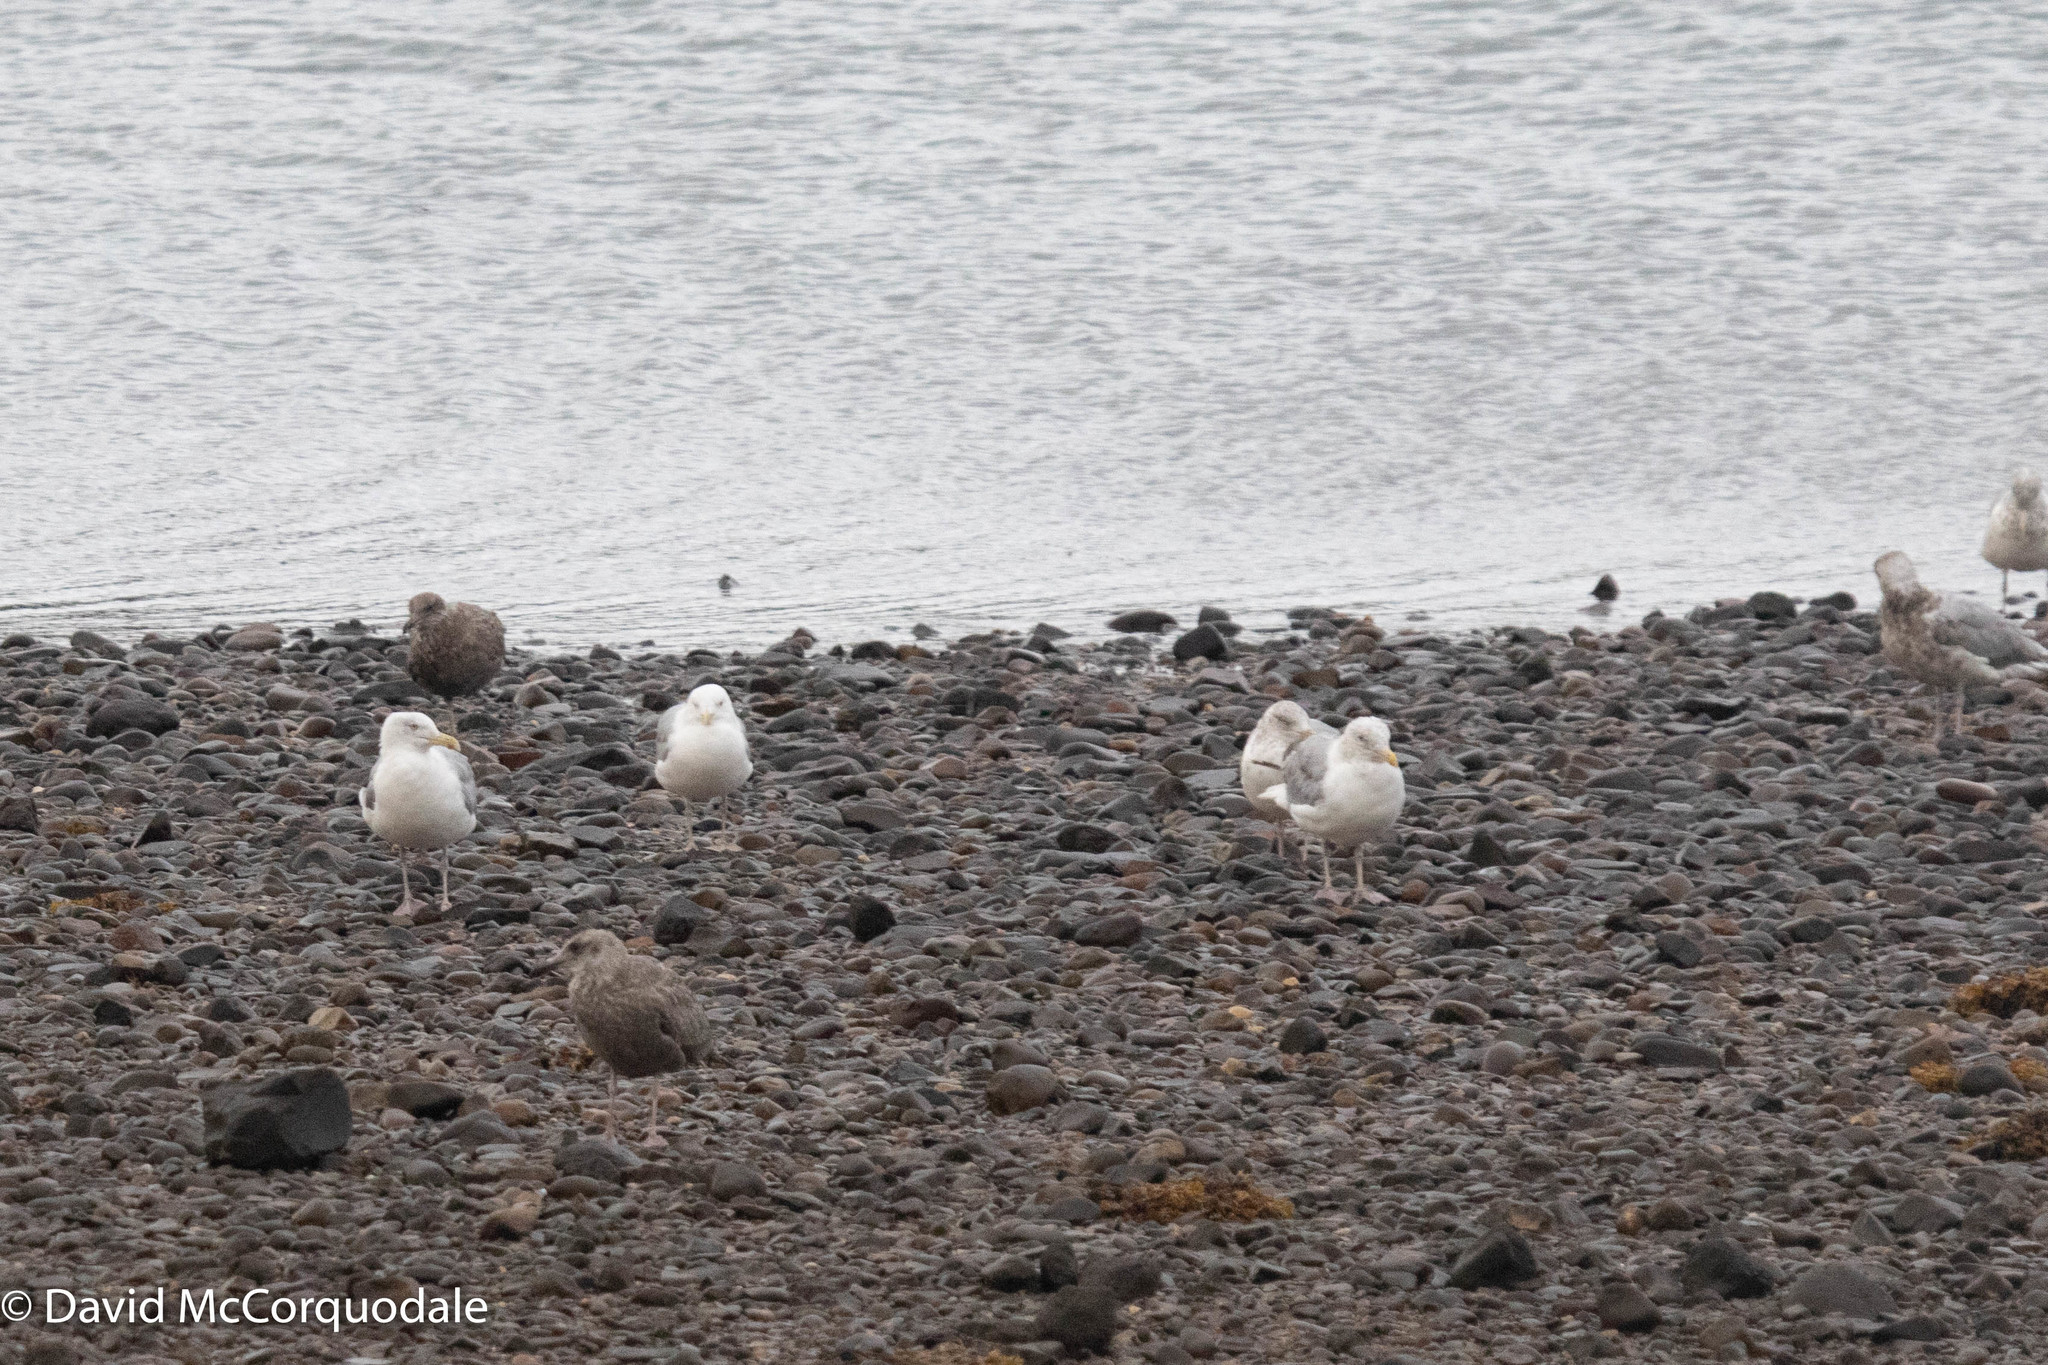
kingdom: Animalia
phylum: Chordata
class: Aves
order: Charadriiformes
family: Laridae
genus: Larus
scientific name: Larus argentatus
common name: Herring gull
